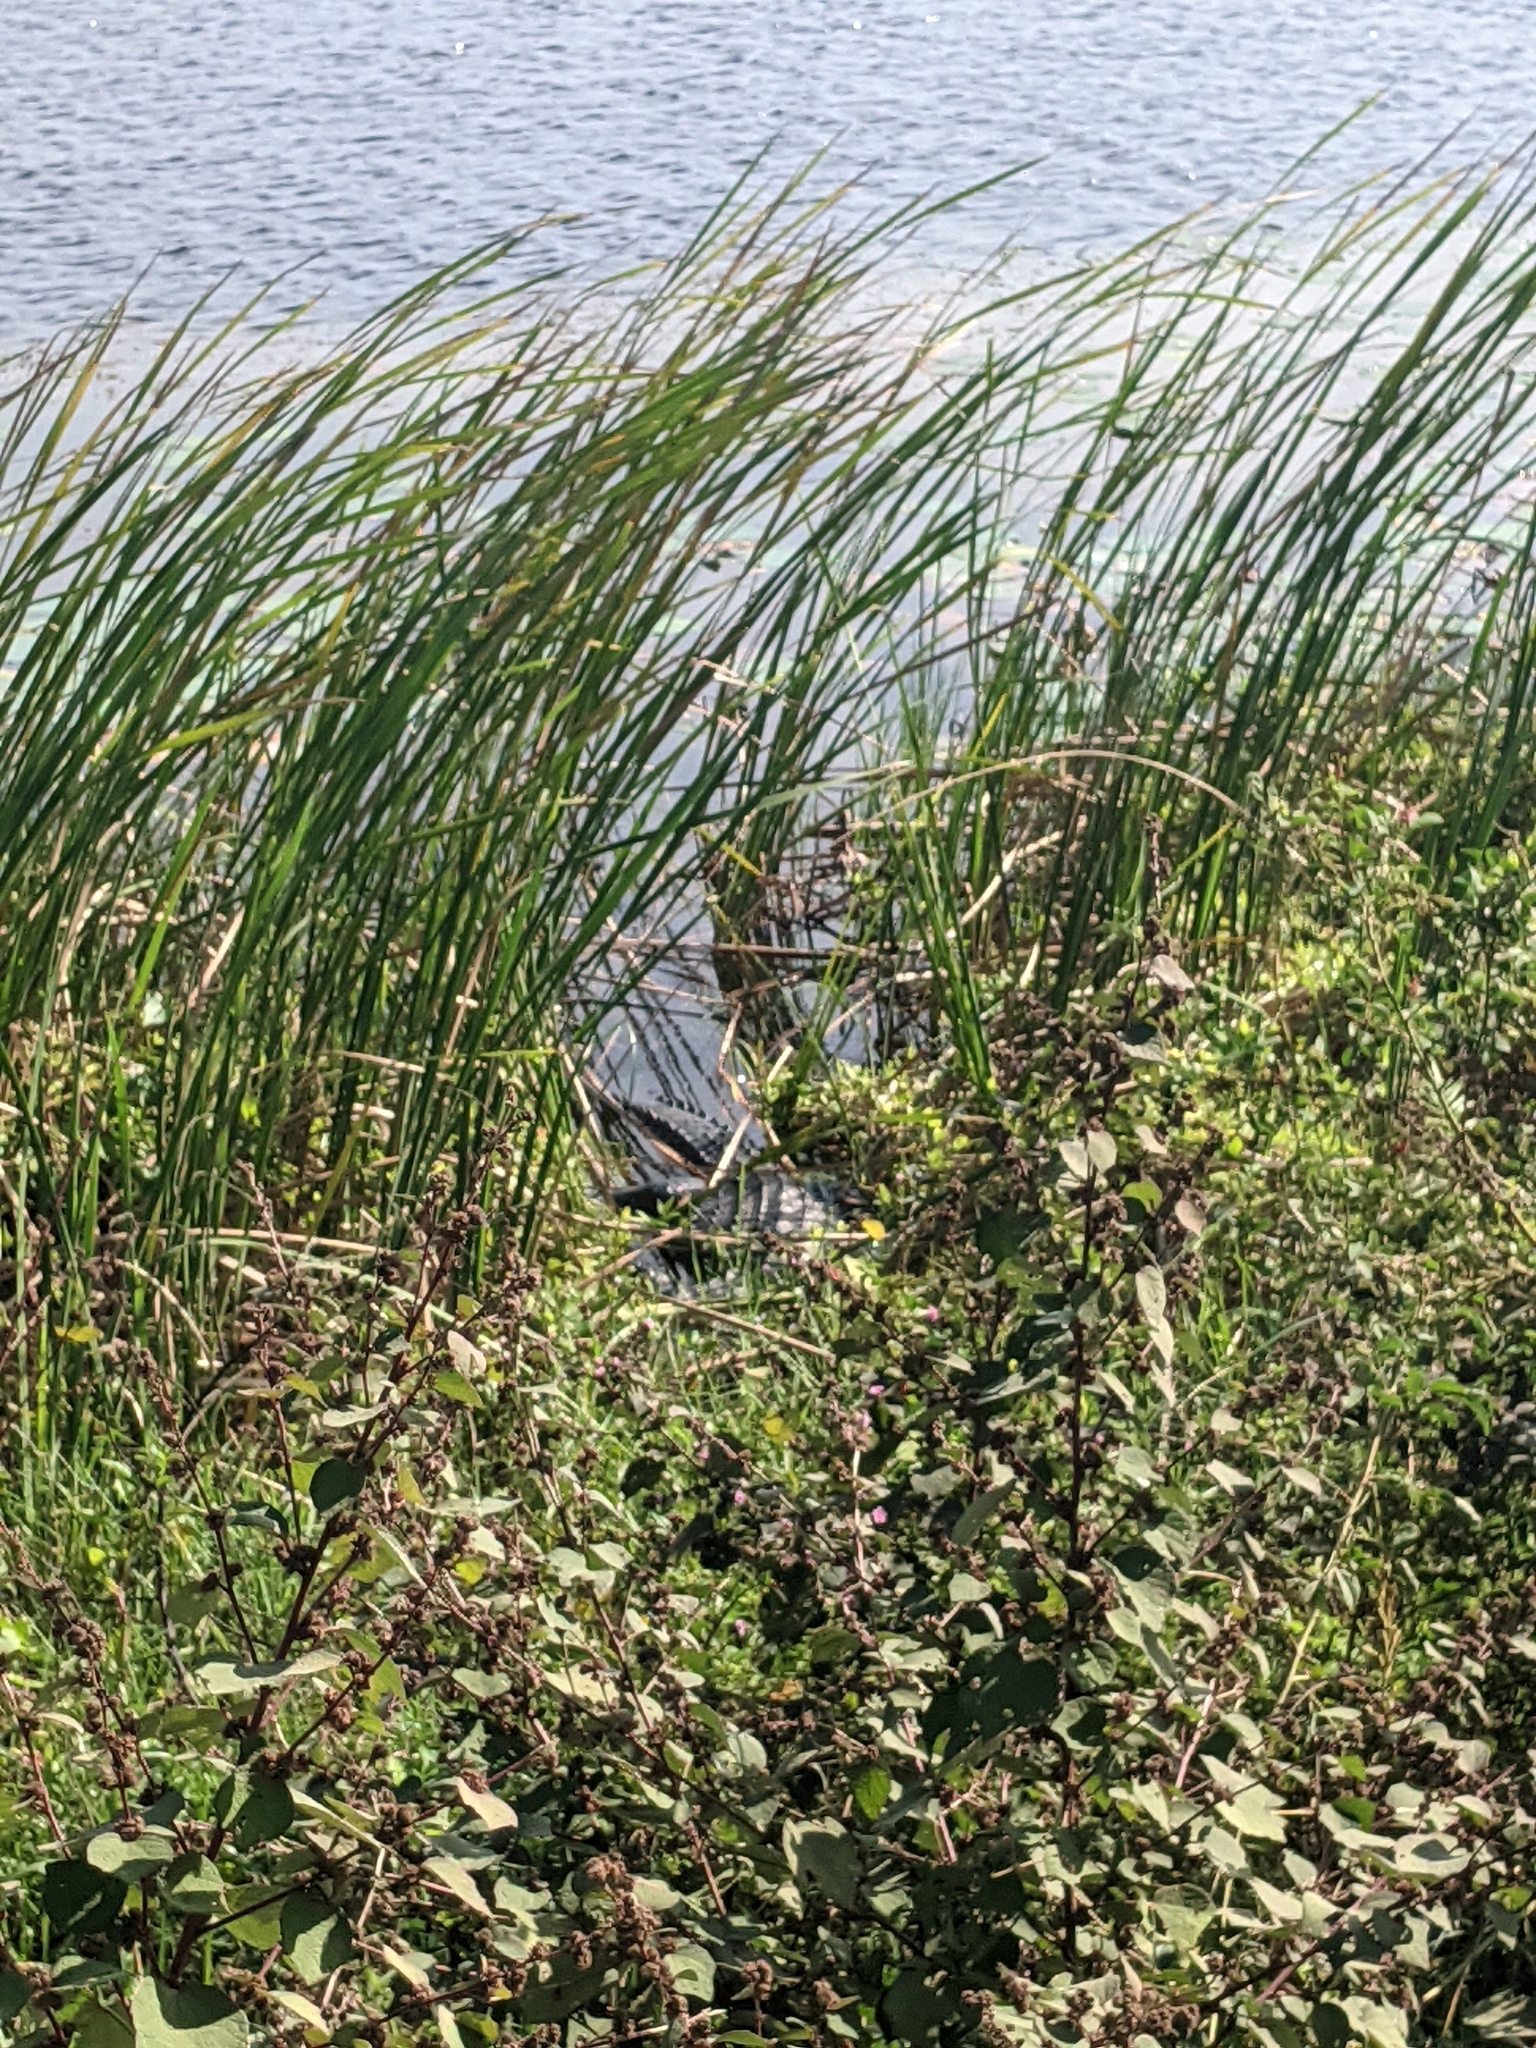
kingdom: Animalia
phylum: Chordata
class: Crocodylia
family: Alligatoridae
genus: Alligator
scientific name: Alligator mississippiensis
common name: American alligator
